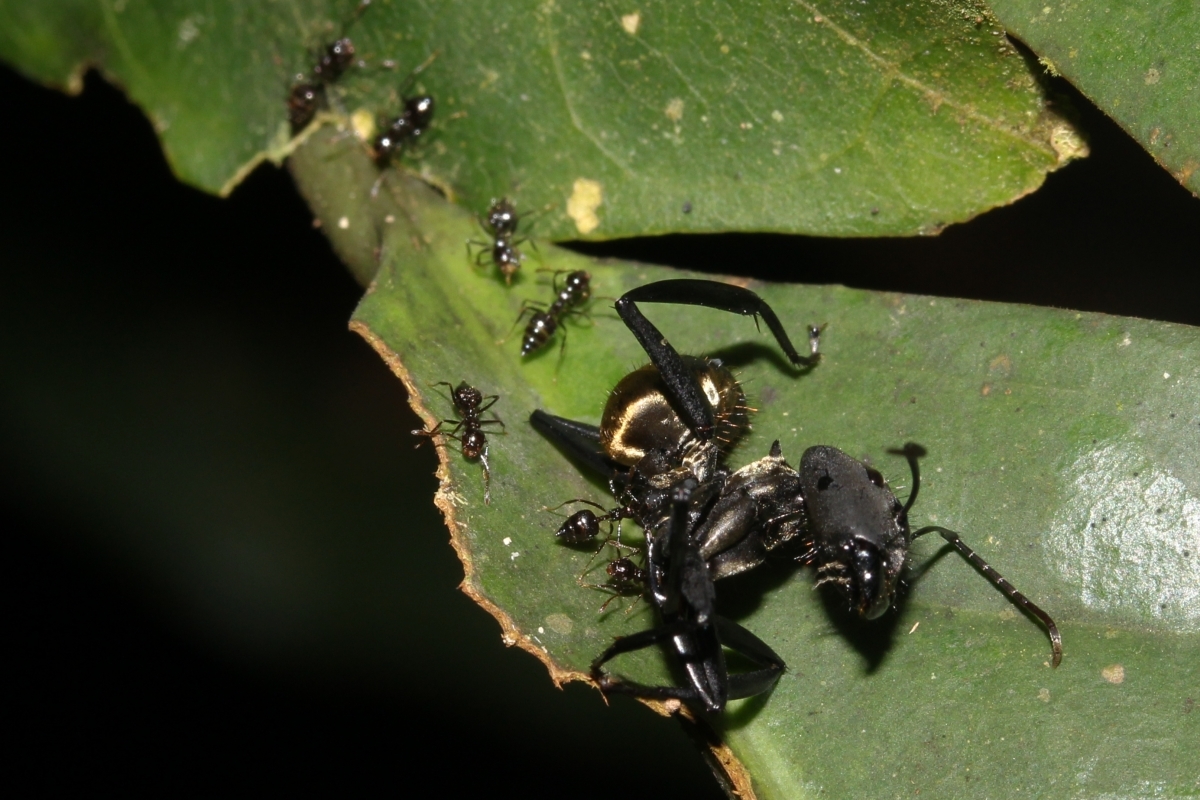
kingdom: Animalia
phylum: Arthropoda
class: Insecta
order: Hymenoptera
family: Formicidae
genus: Camponotus
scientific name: Camponotus sericeiventris
